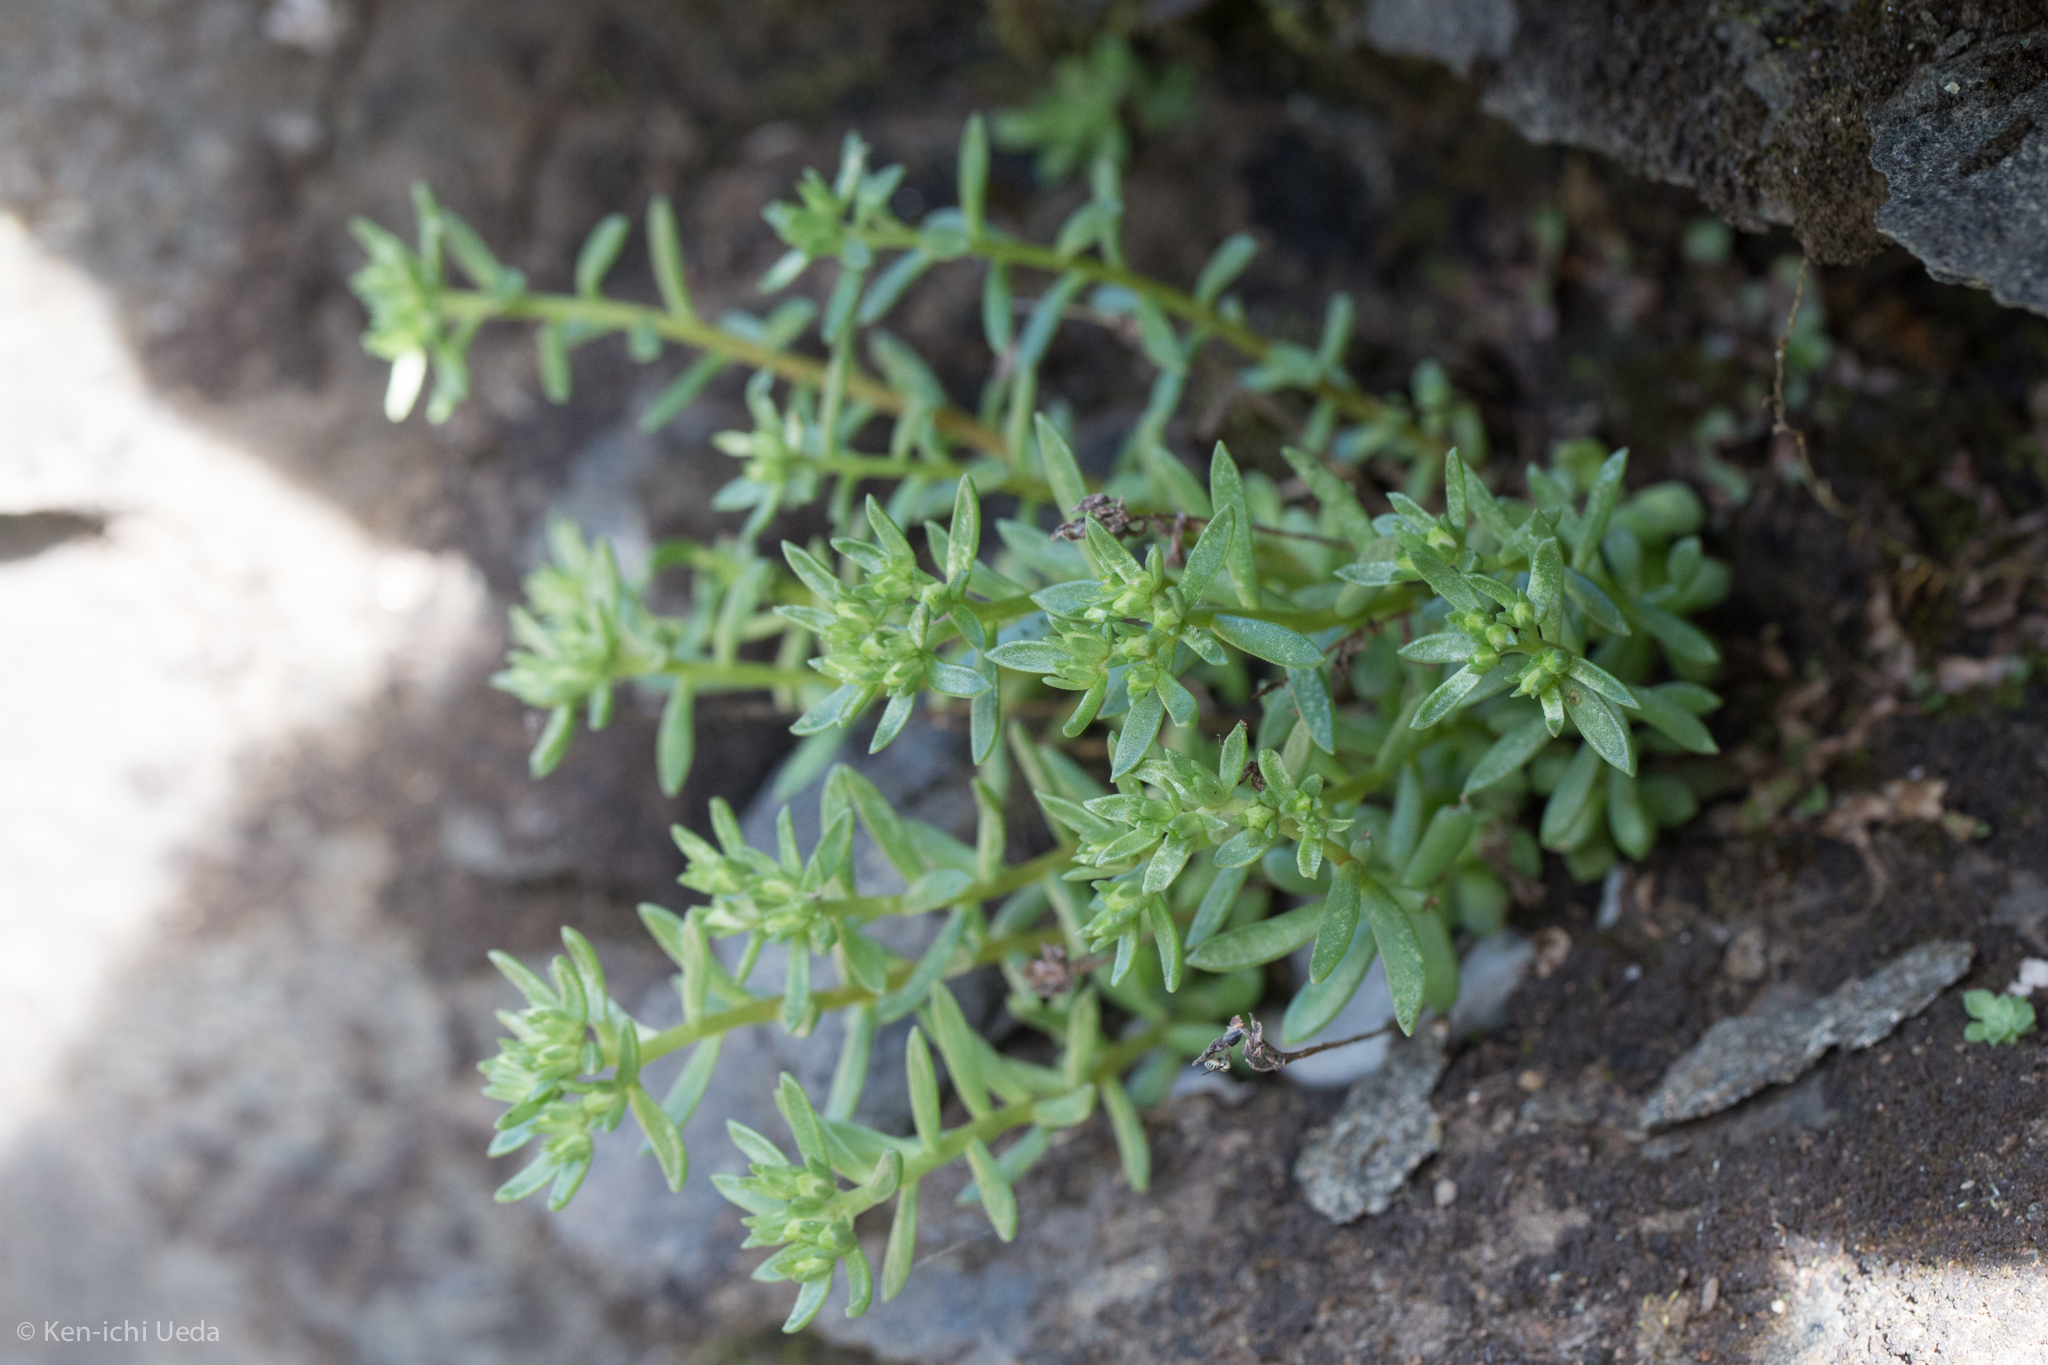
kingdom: Plantae
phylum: Tracheophyta
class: Magnoliopsida
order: Saxifragales
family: Crassulaceae
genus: Sedum
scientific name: Sedum cockerellii
